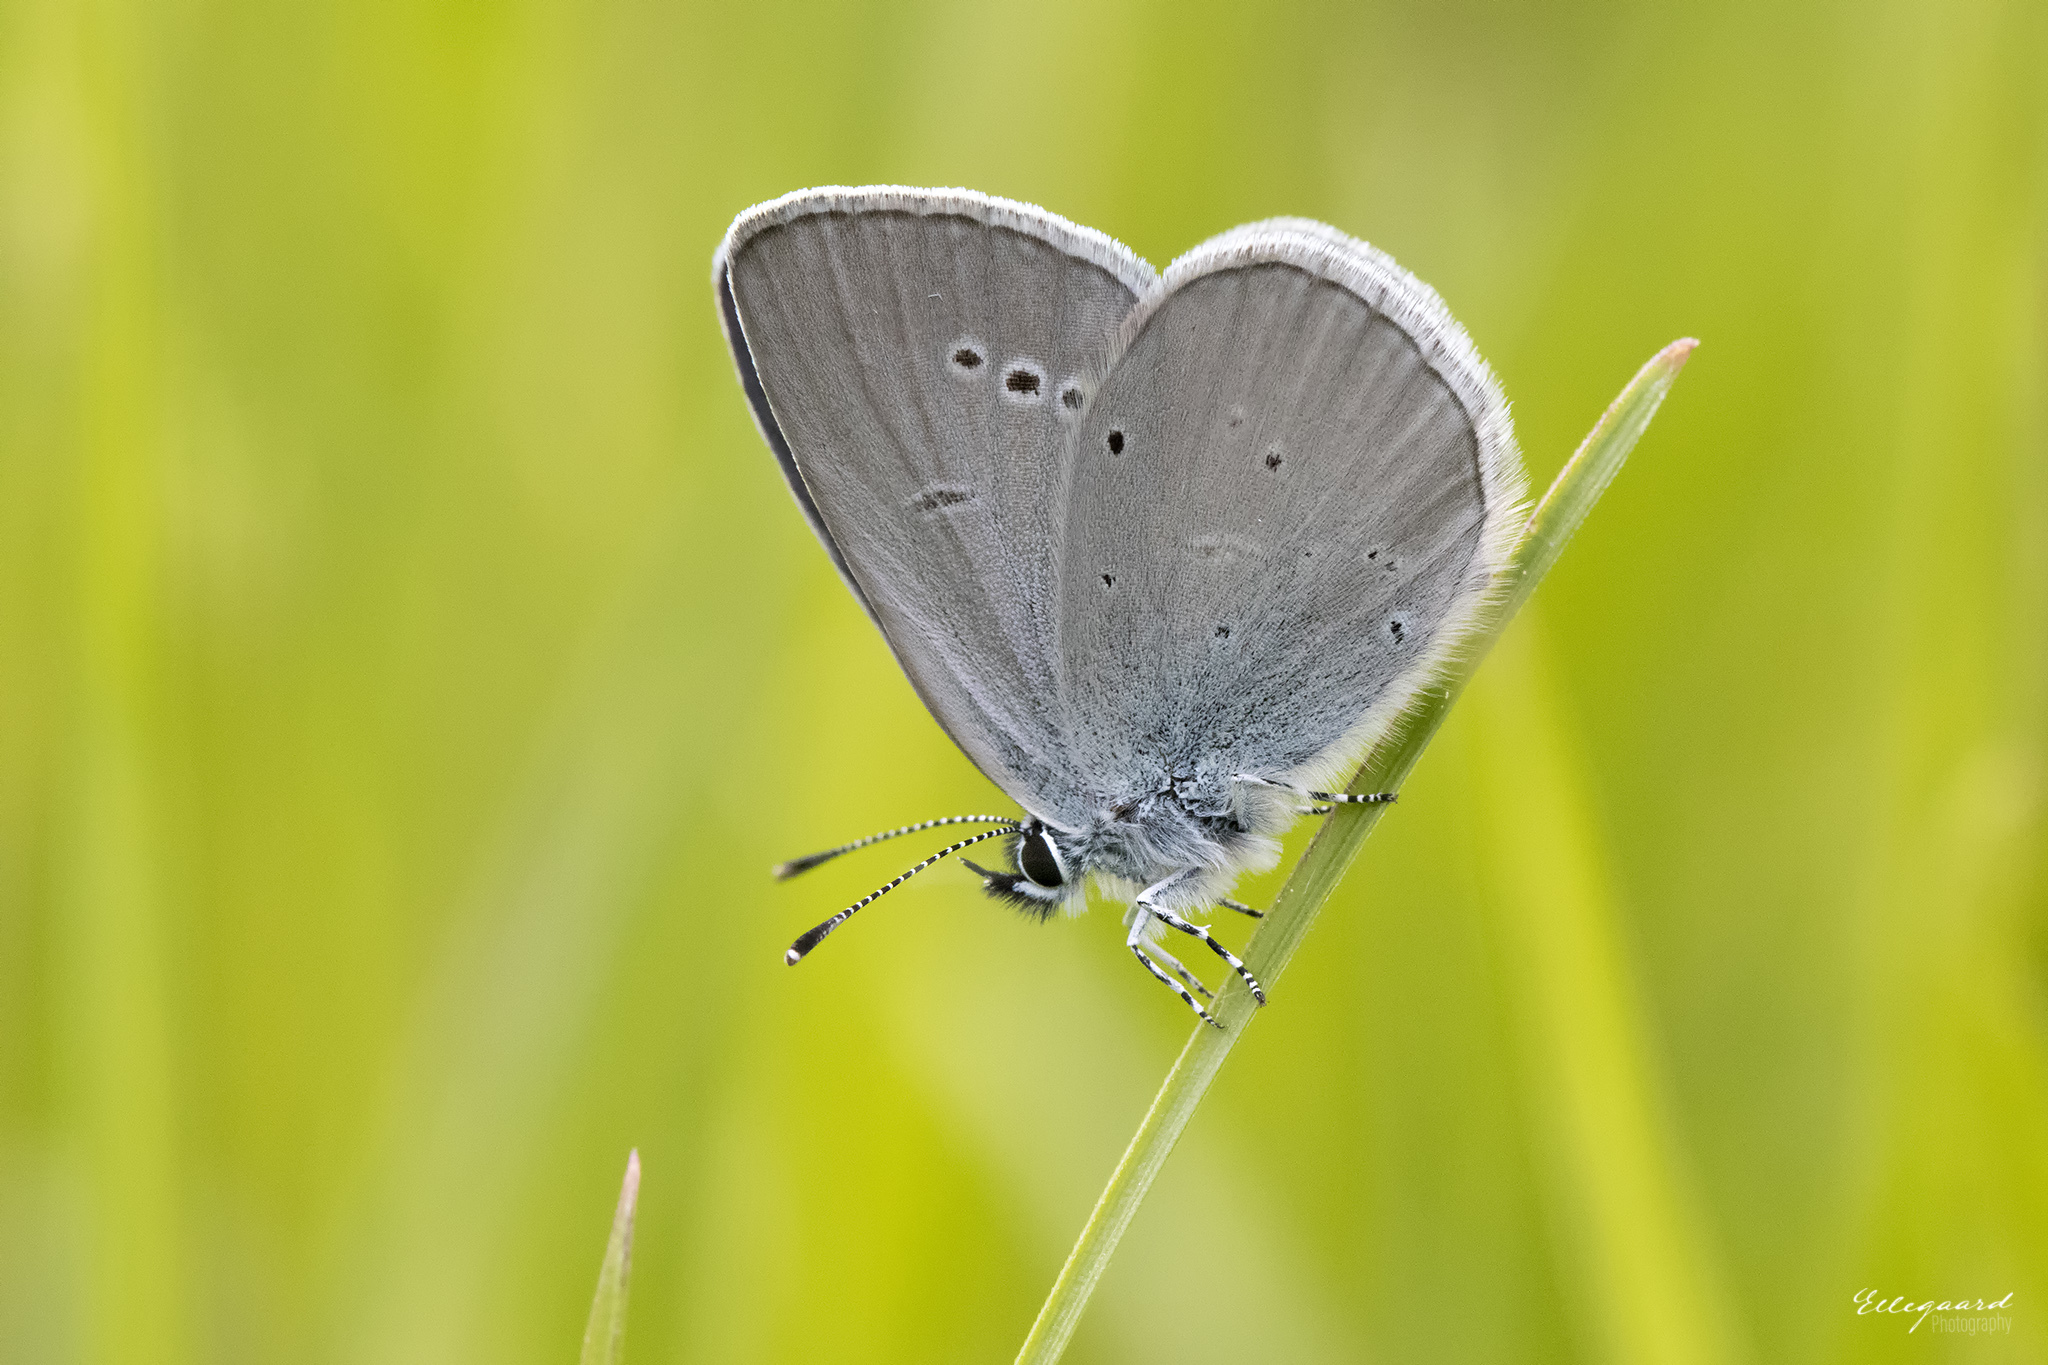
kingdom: Animalia
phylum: Arthropoda
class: Insecta
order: Lepidoptera
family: Lycaenidae
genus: Cupido
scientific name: Cupido minimus
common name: Small blue
